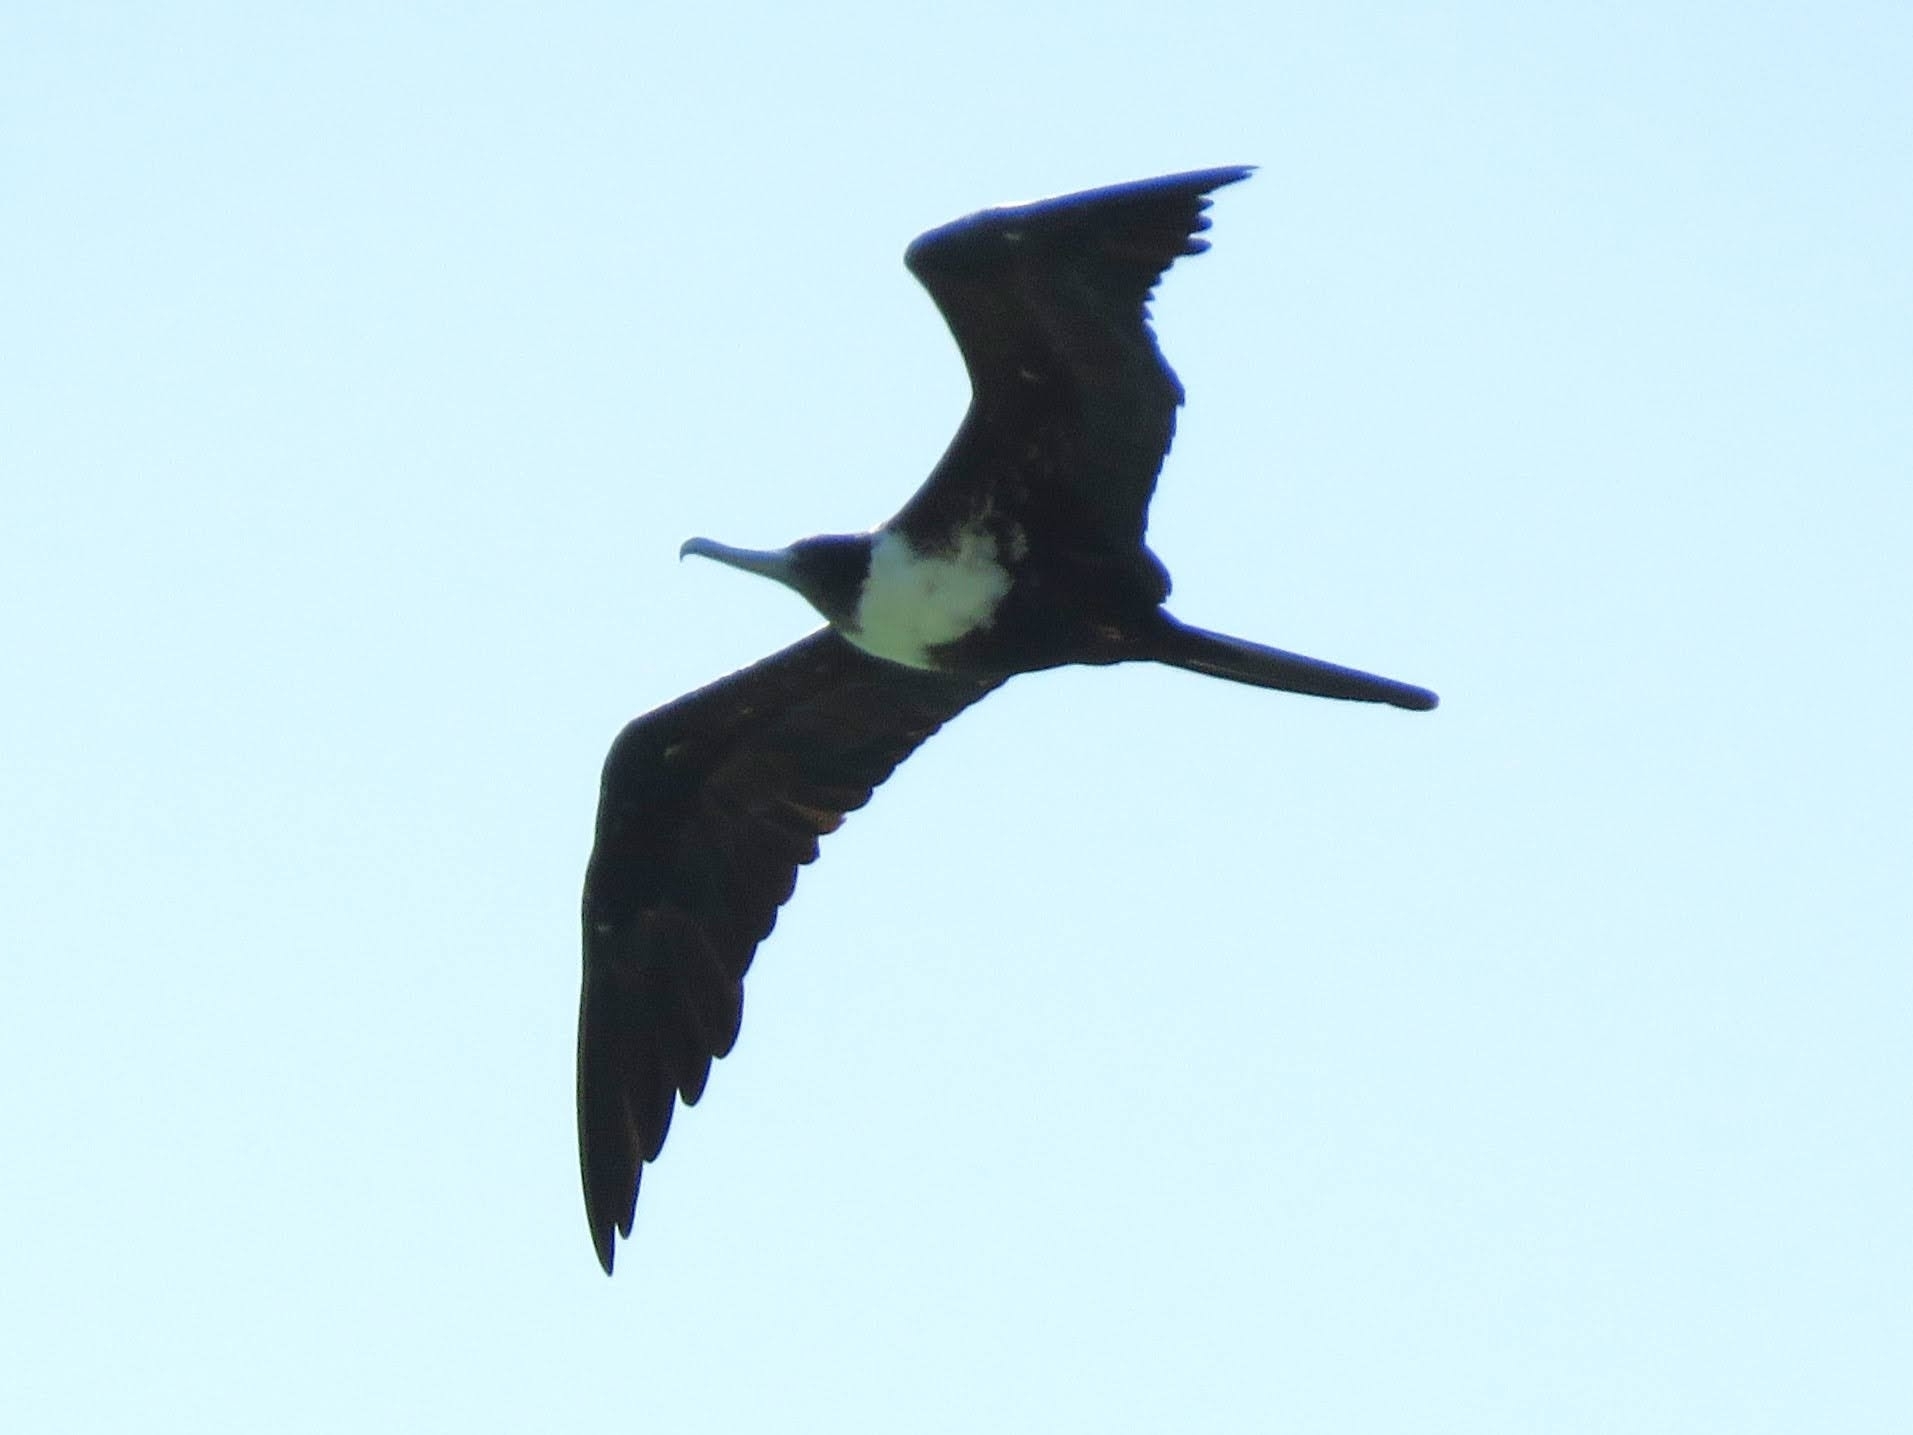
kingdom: Animalia
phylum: Chordata
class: Aves
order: Suliformes
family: Fregatidae
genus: Fregata
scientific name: Fregata magnificens
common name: Magnificent frigatebird
